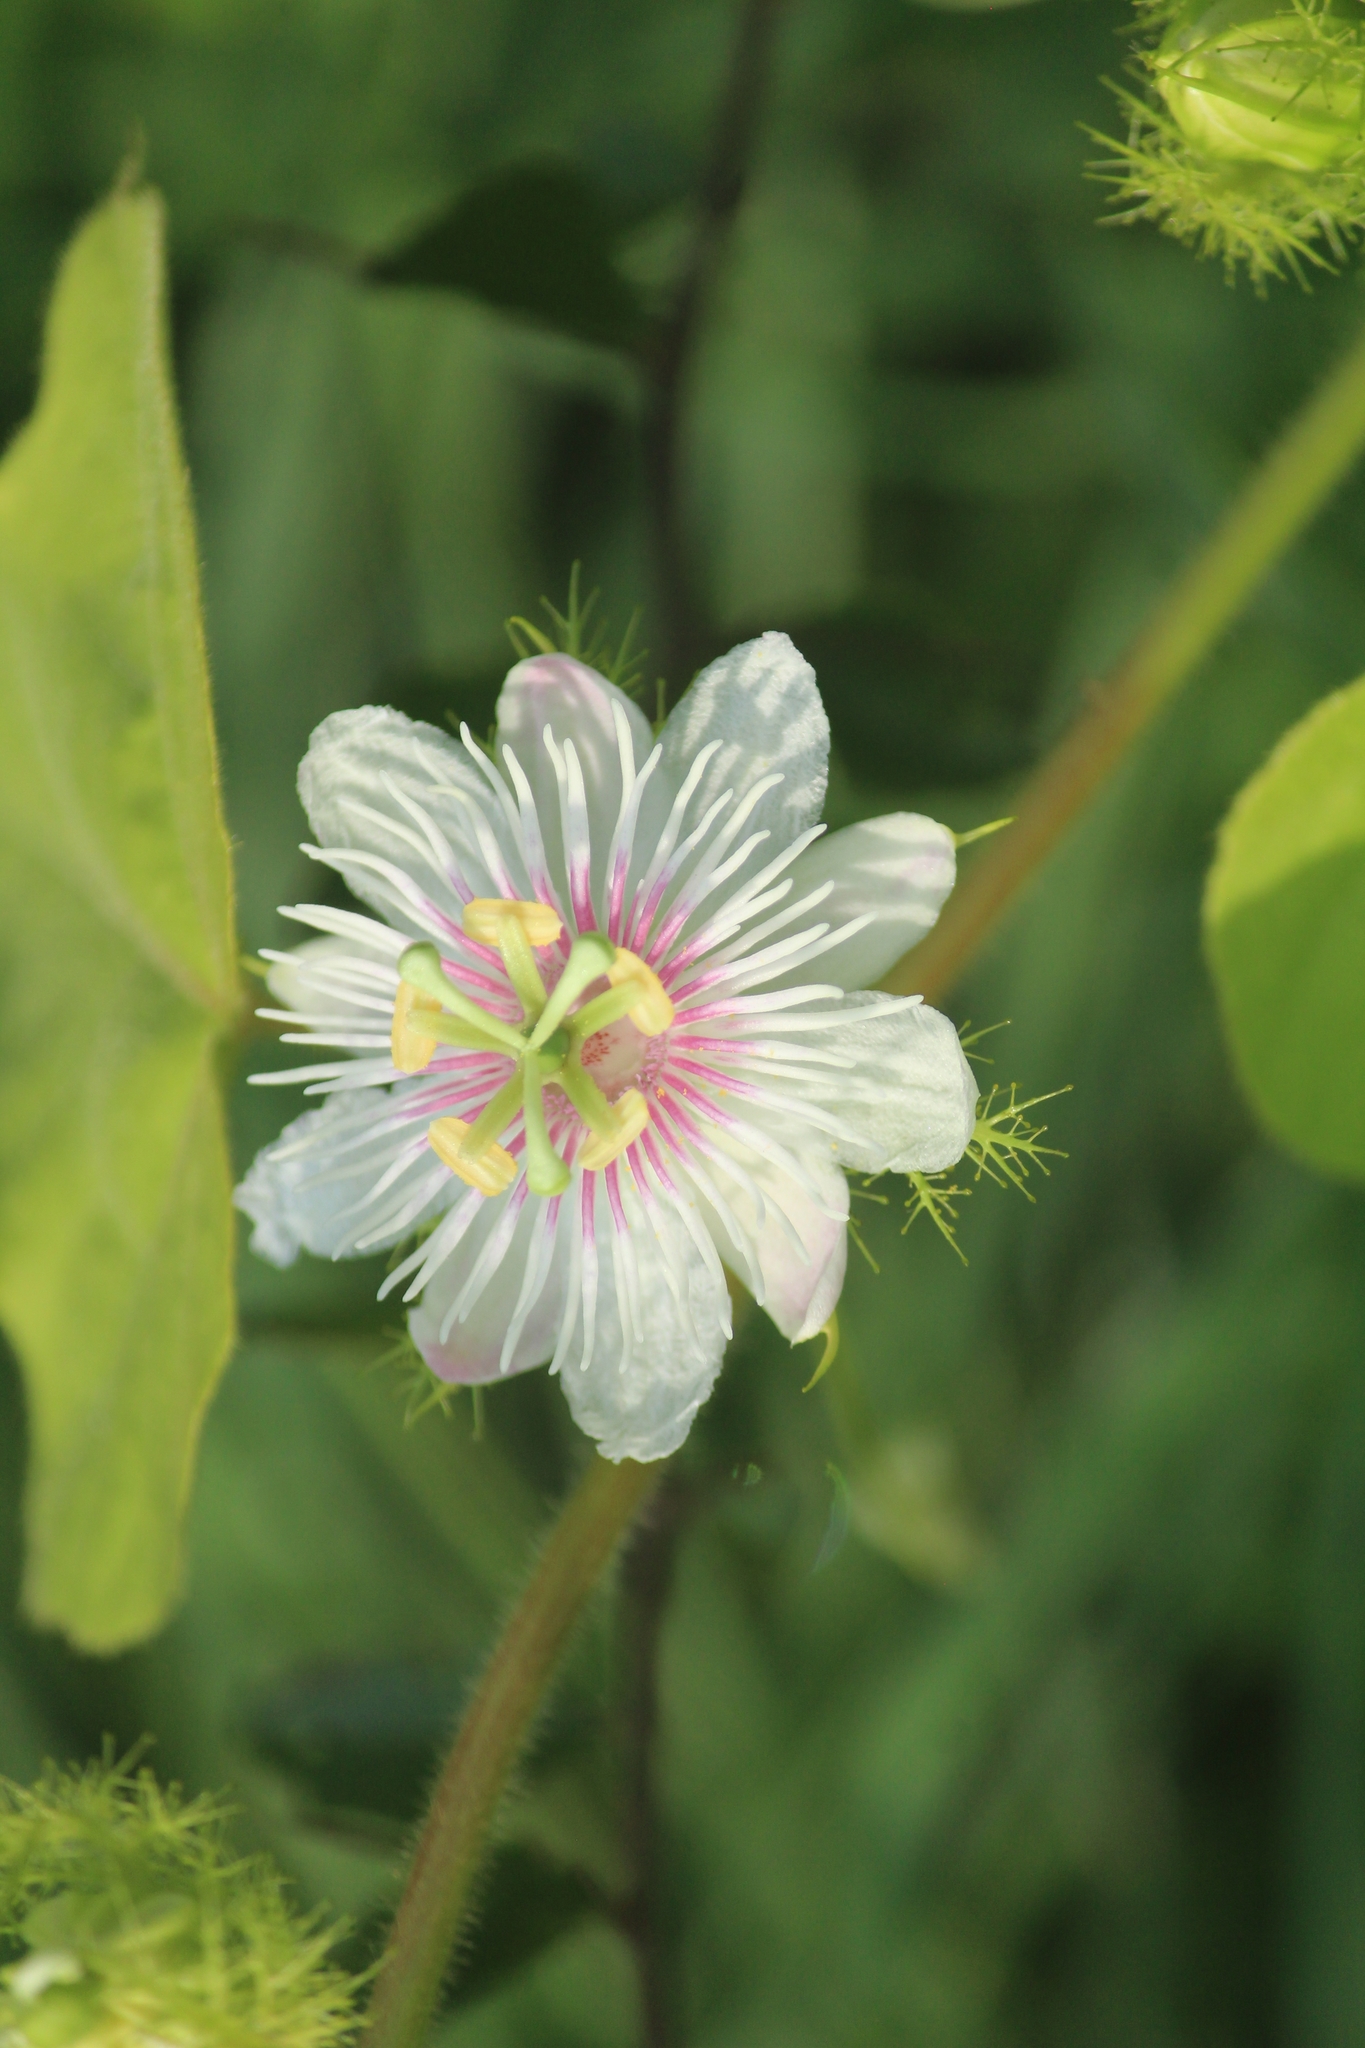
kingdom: Plantae
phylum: Tracheophyta
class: Magnoliopsida
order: Malpighiales
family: Passifloraceae
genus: Passiflora
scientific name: Passiflora foetida
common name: Fetid passionflower
